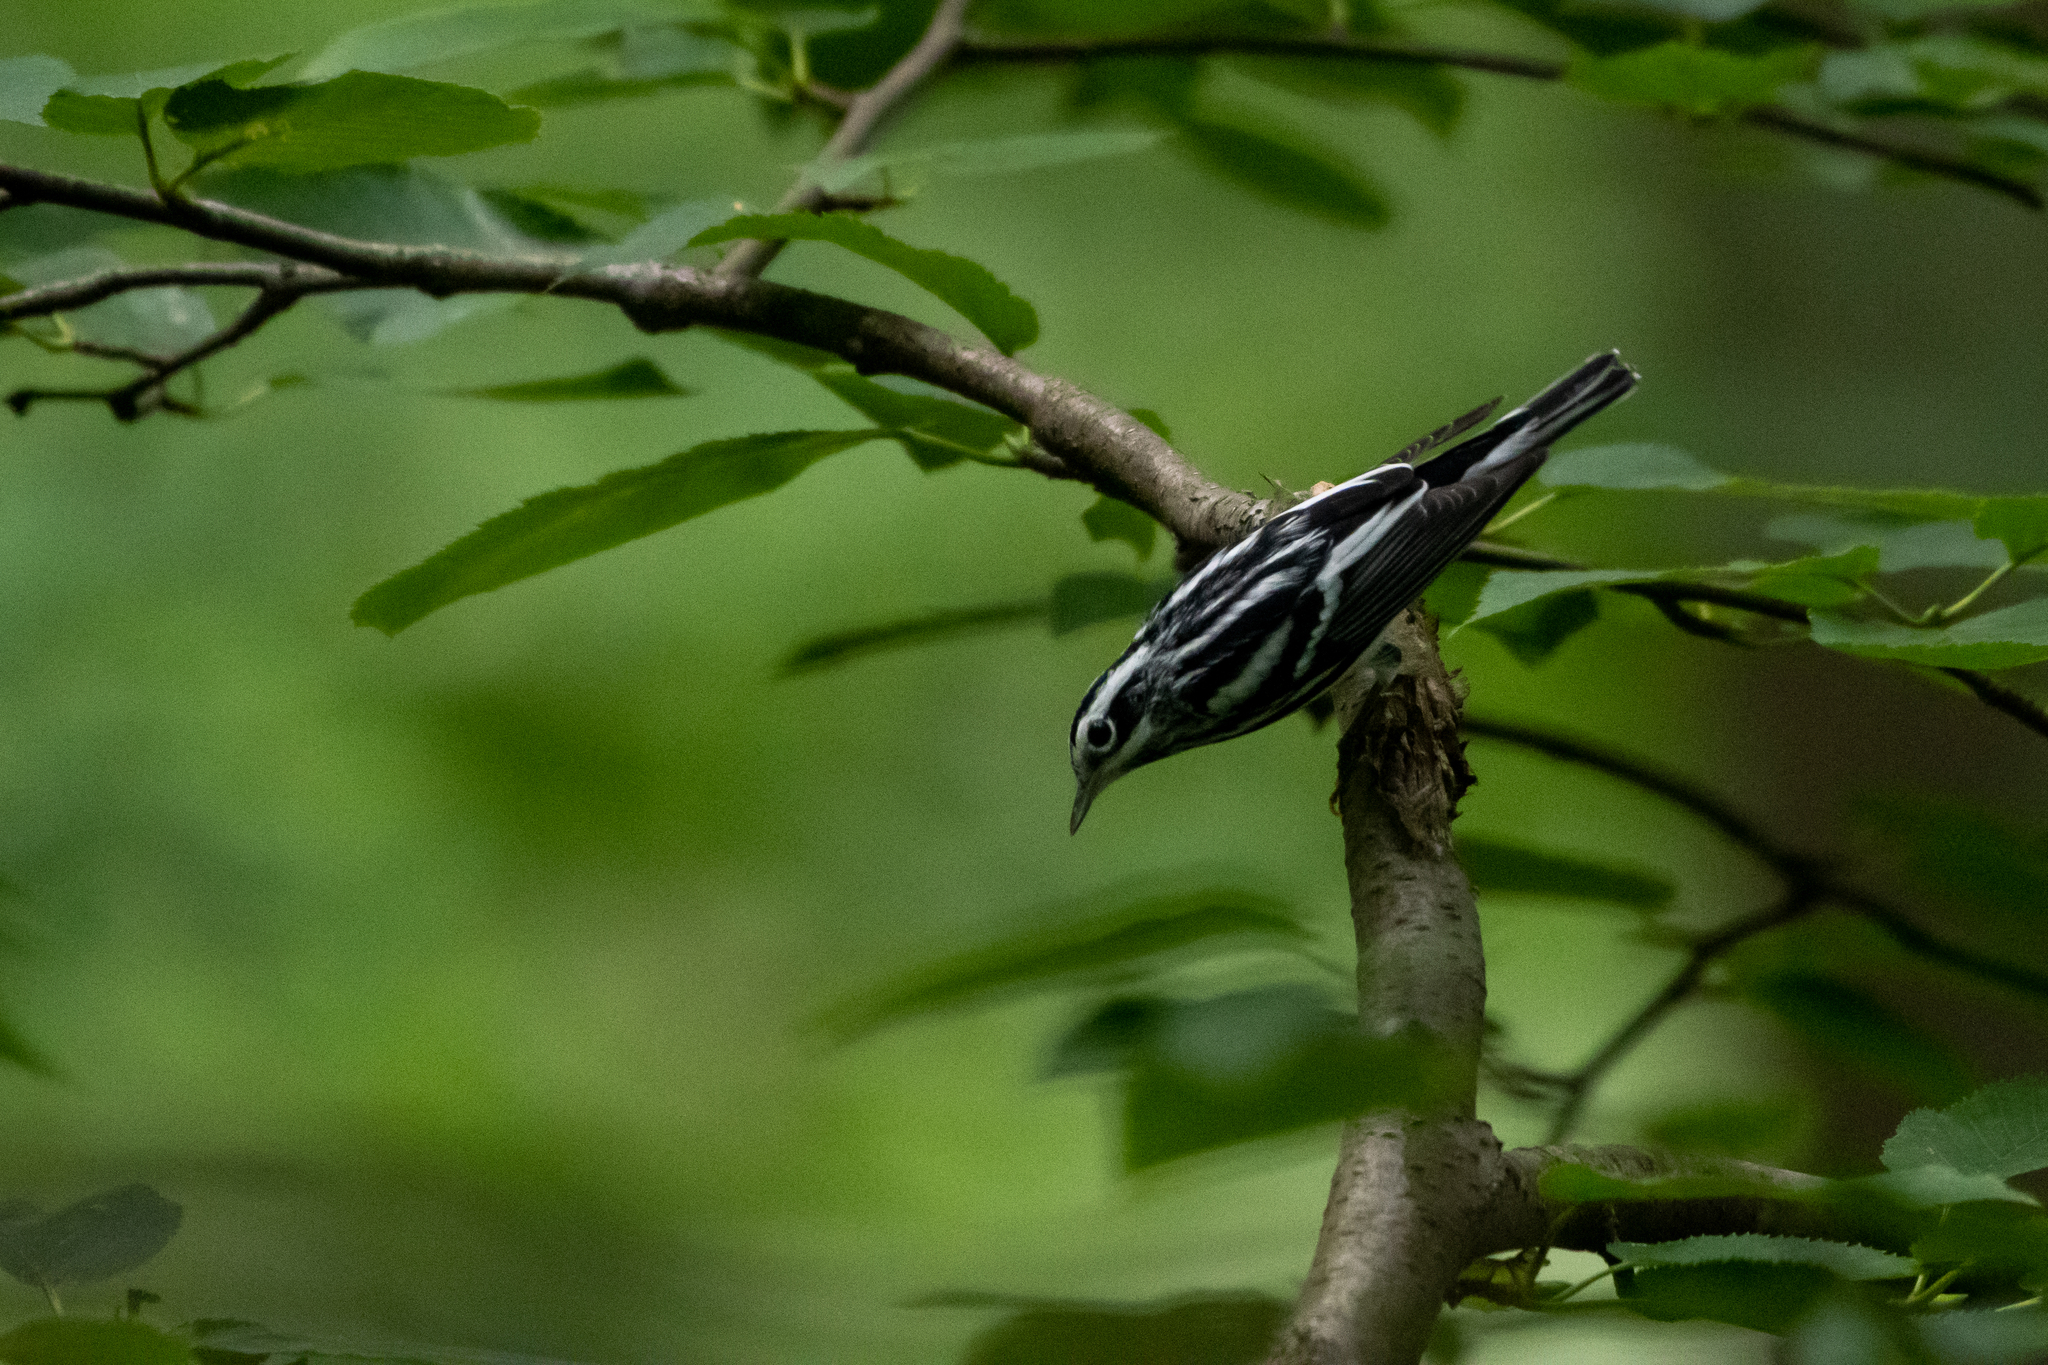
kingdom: Animalia
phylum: Chordata
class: Aves
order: Passeriformes
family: Parulidae
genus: Mniotilta
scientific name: Mniotilta varia
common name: Black-and-white warbler
